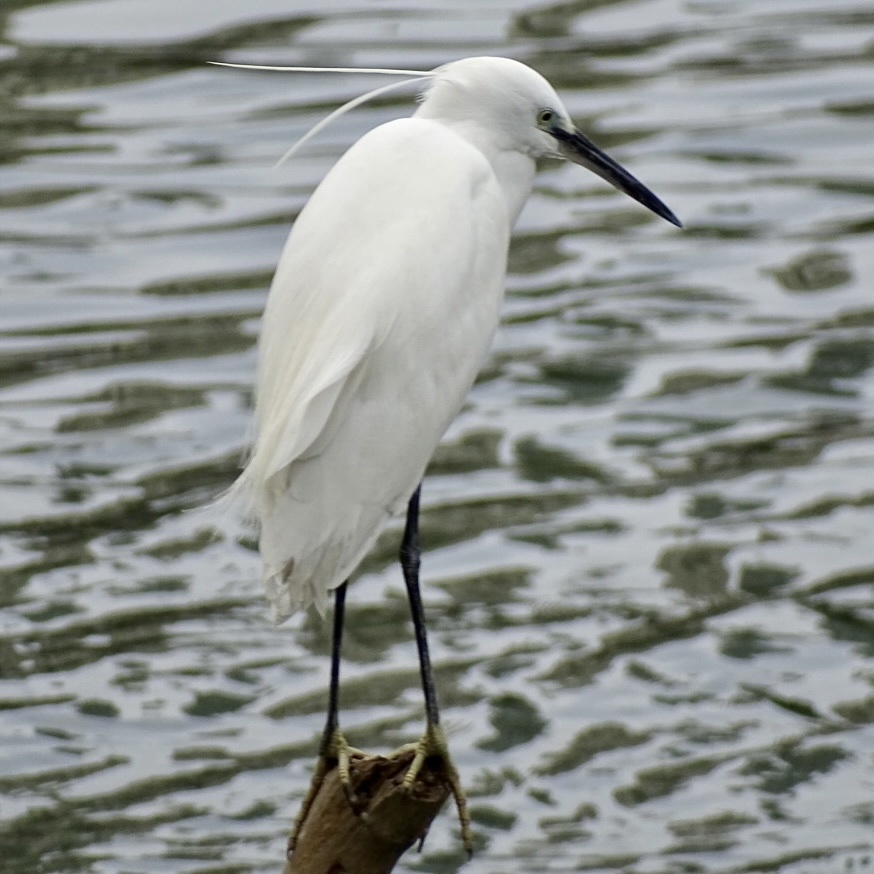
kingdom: Animalia
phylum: Chordata
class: Aves
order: Pelecaniformes
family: Ardeidae
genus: Egretta
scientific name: Egretta garzetta
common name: Little egret
